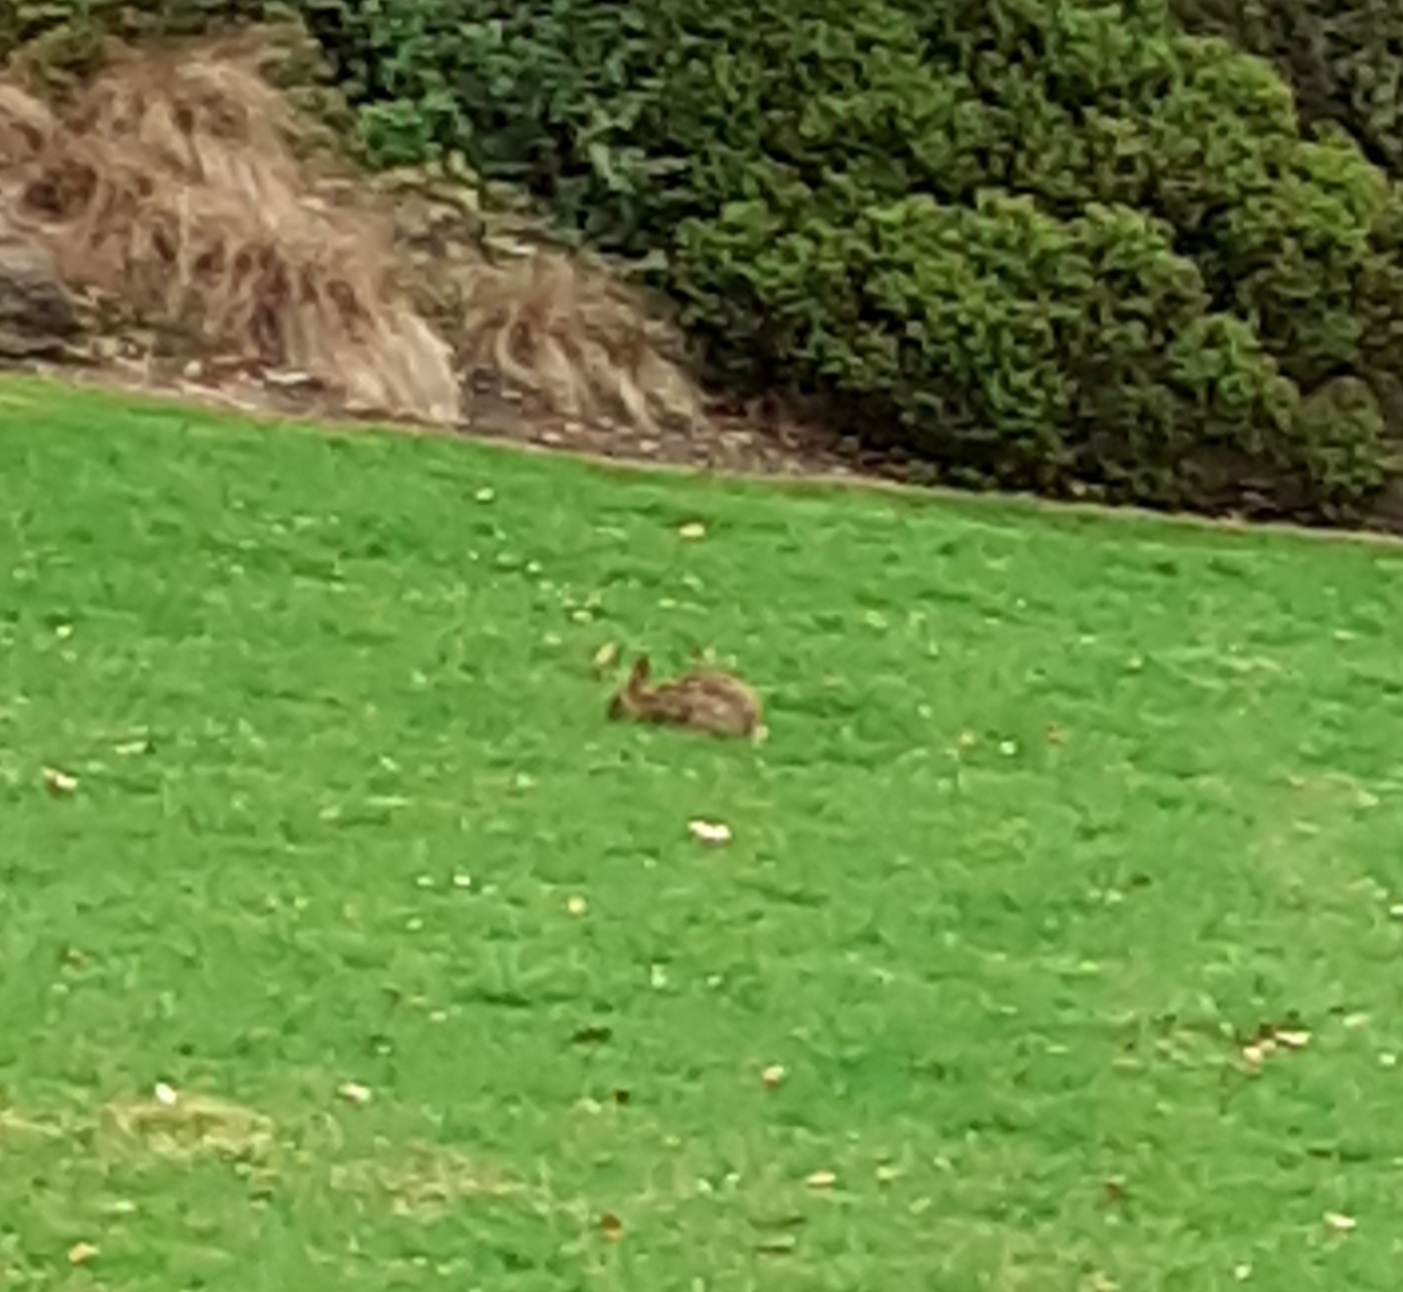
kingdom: Animalia
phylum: Chordata
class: Mammalia
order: Lagomorpha
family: Leporidae
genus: Oryctolagus
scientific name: Oryctolagus cuniculus
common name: European rabbit
